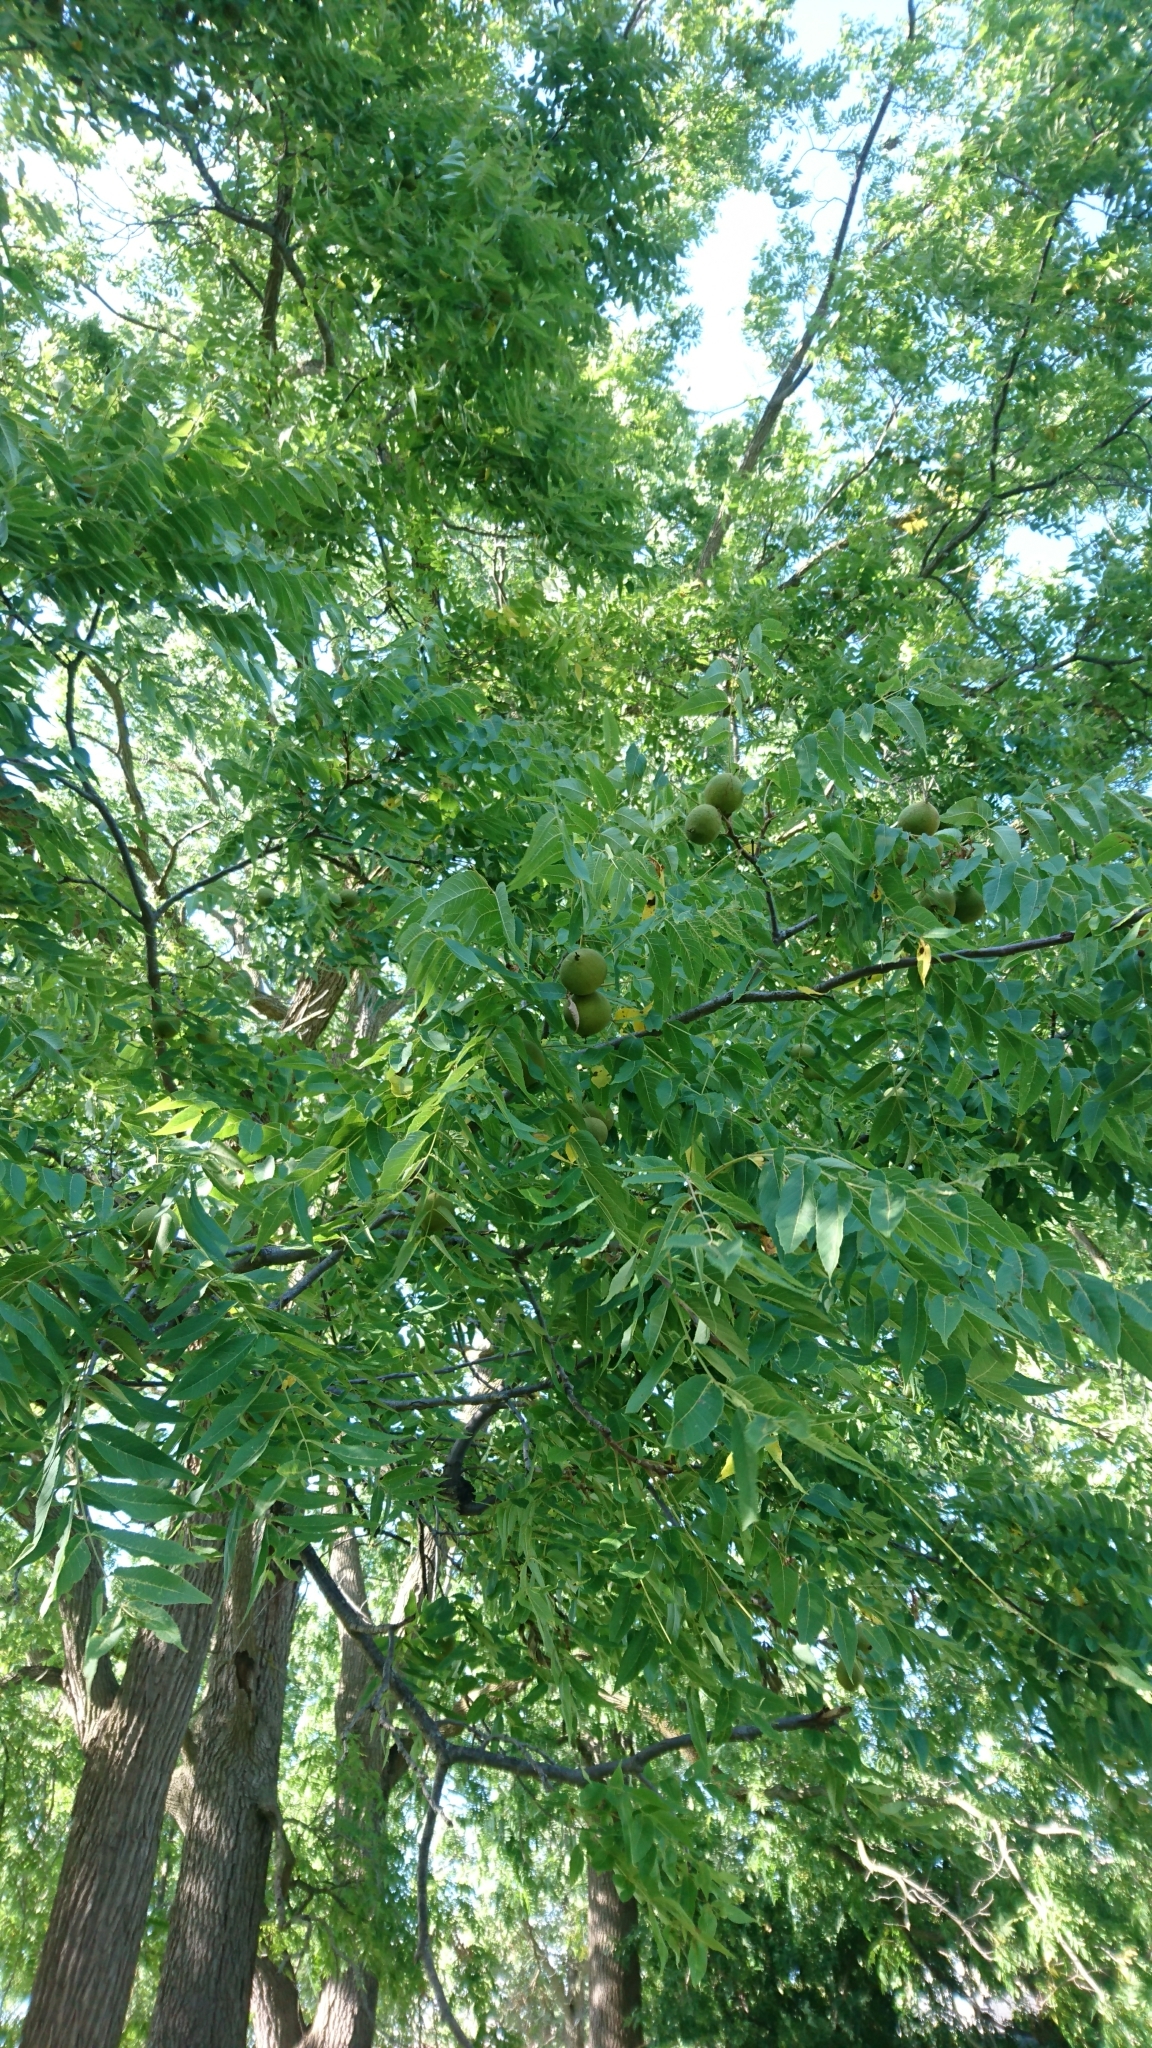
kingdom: Plantae
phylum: Tracheophyta
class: Magnoliopsida
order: Fagales
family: Juglandaceae
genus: Juglans
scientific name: Juglans nigra
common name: Black walnut
